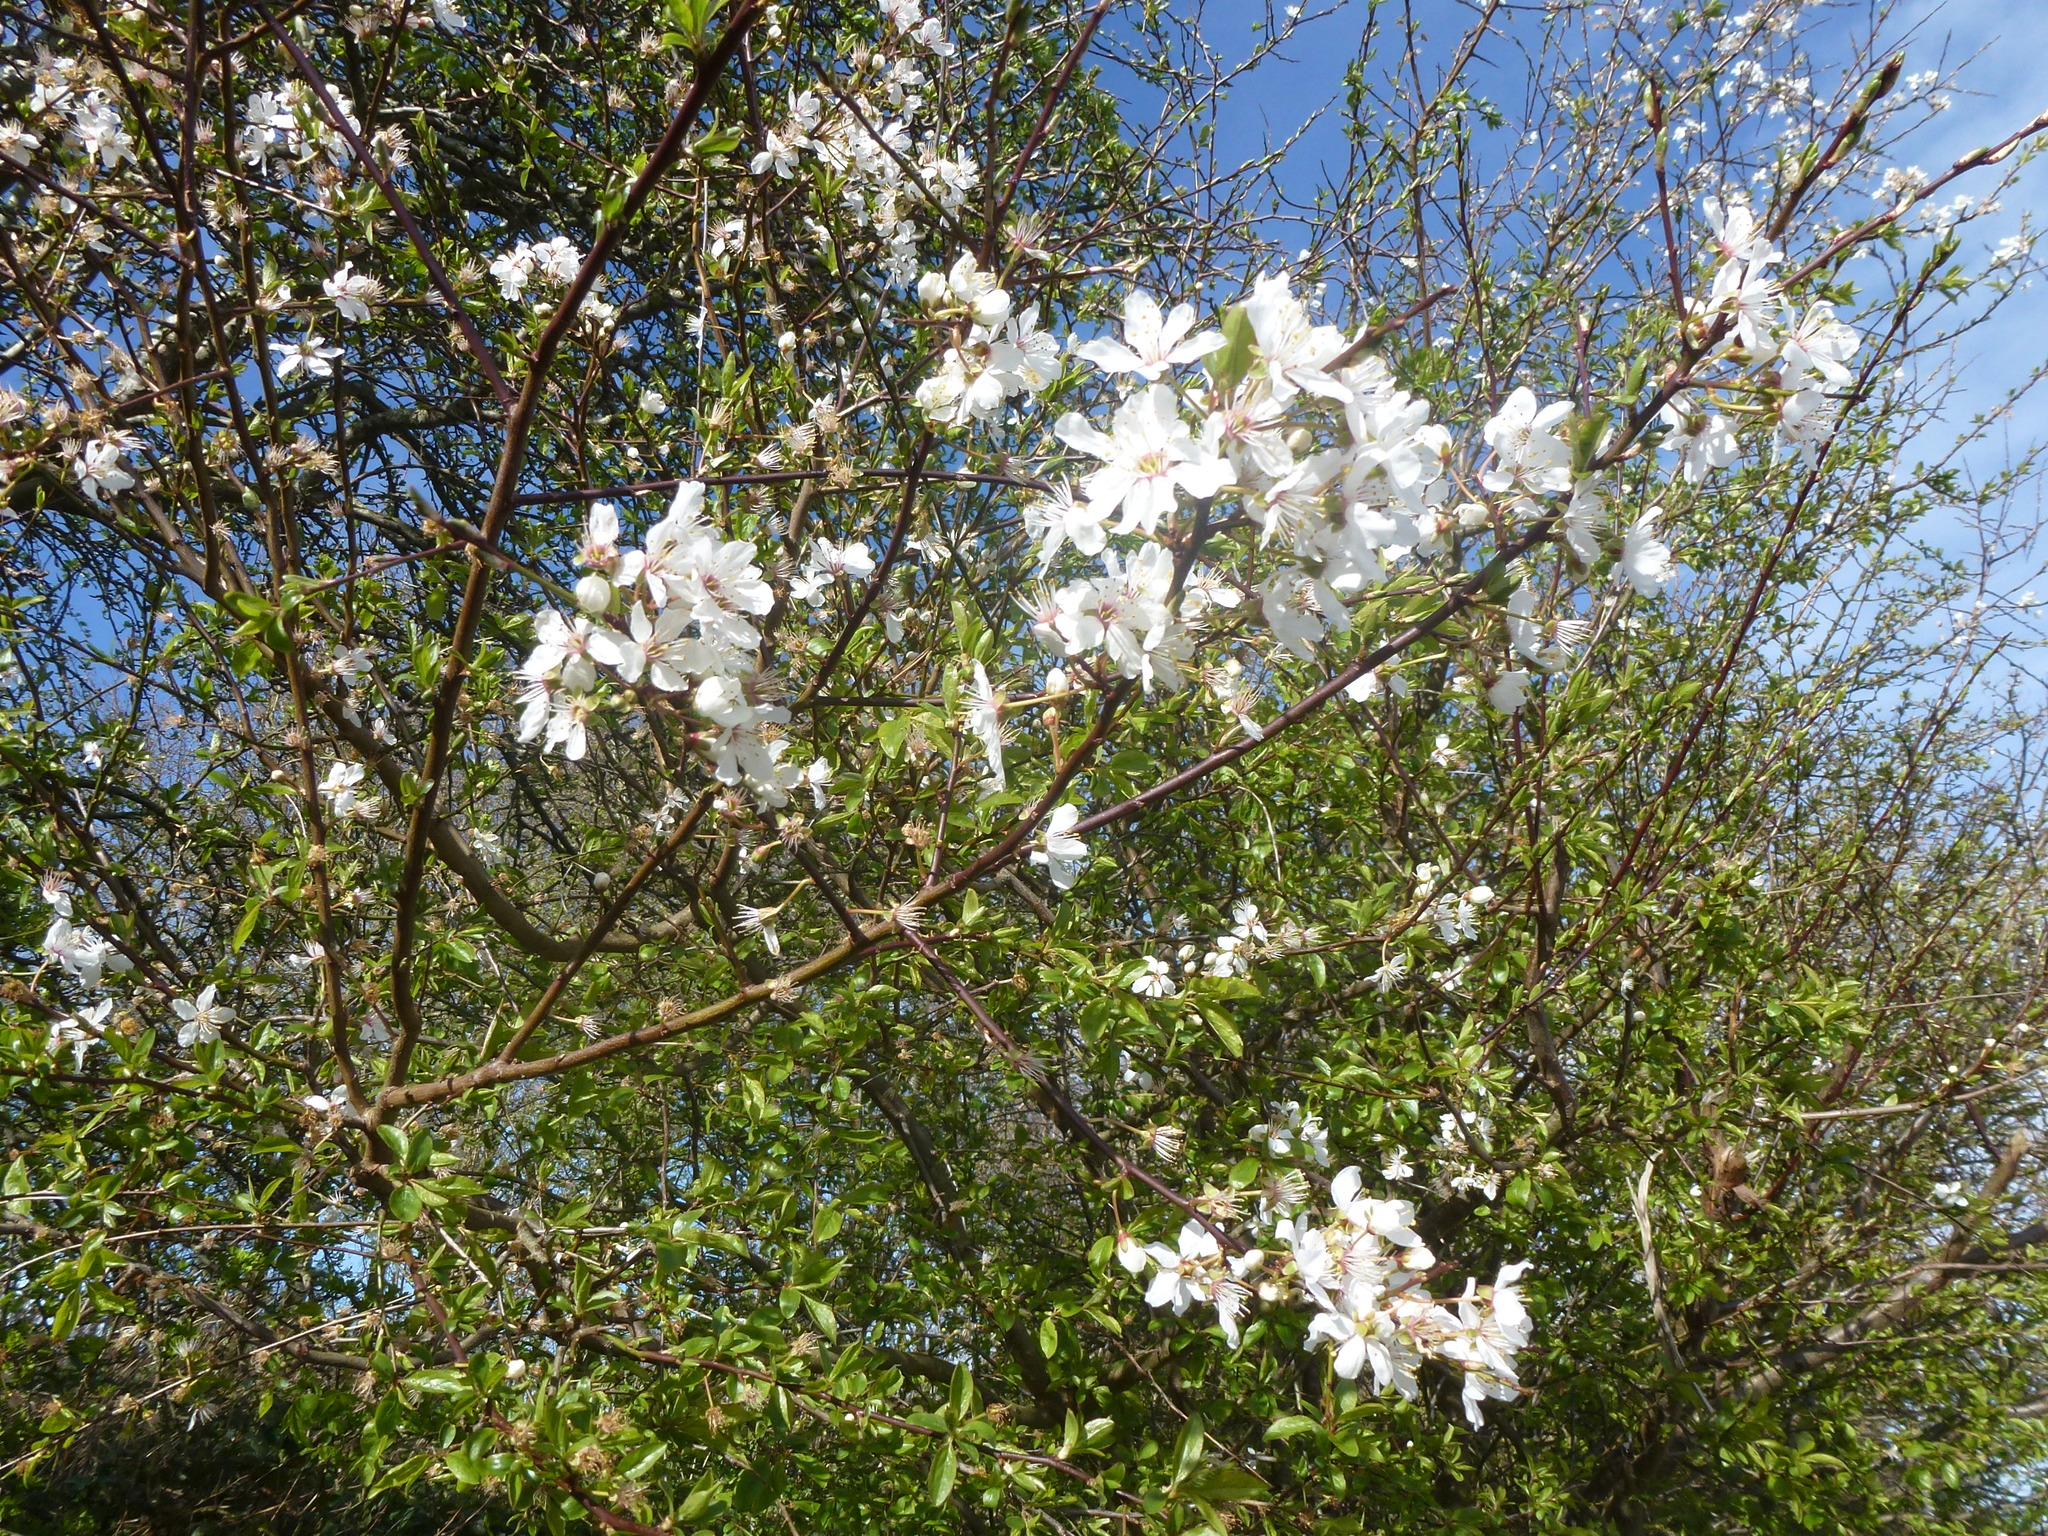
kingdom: Plantae
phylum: Tracheophyta
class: Magnoliopsida
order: Rosales
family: Rosaceae
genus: Prunus
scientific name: Prunus cerasifera
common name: Cherry plum
